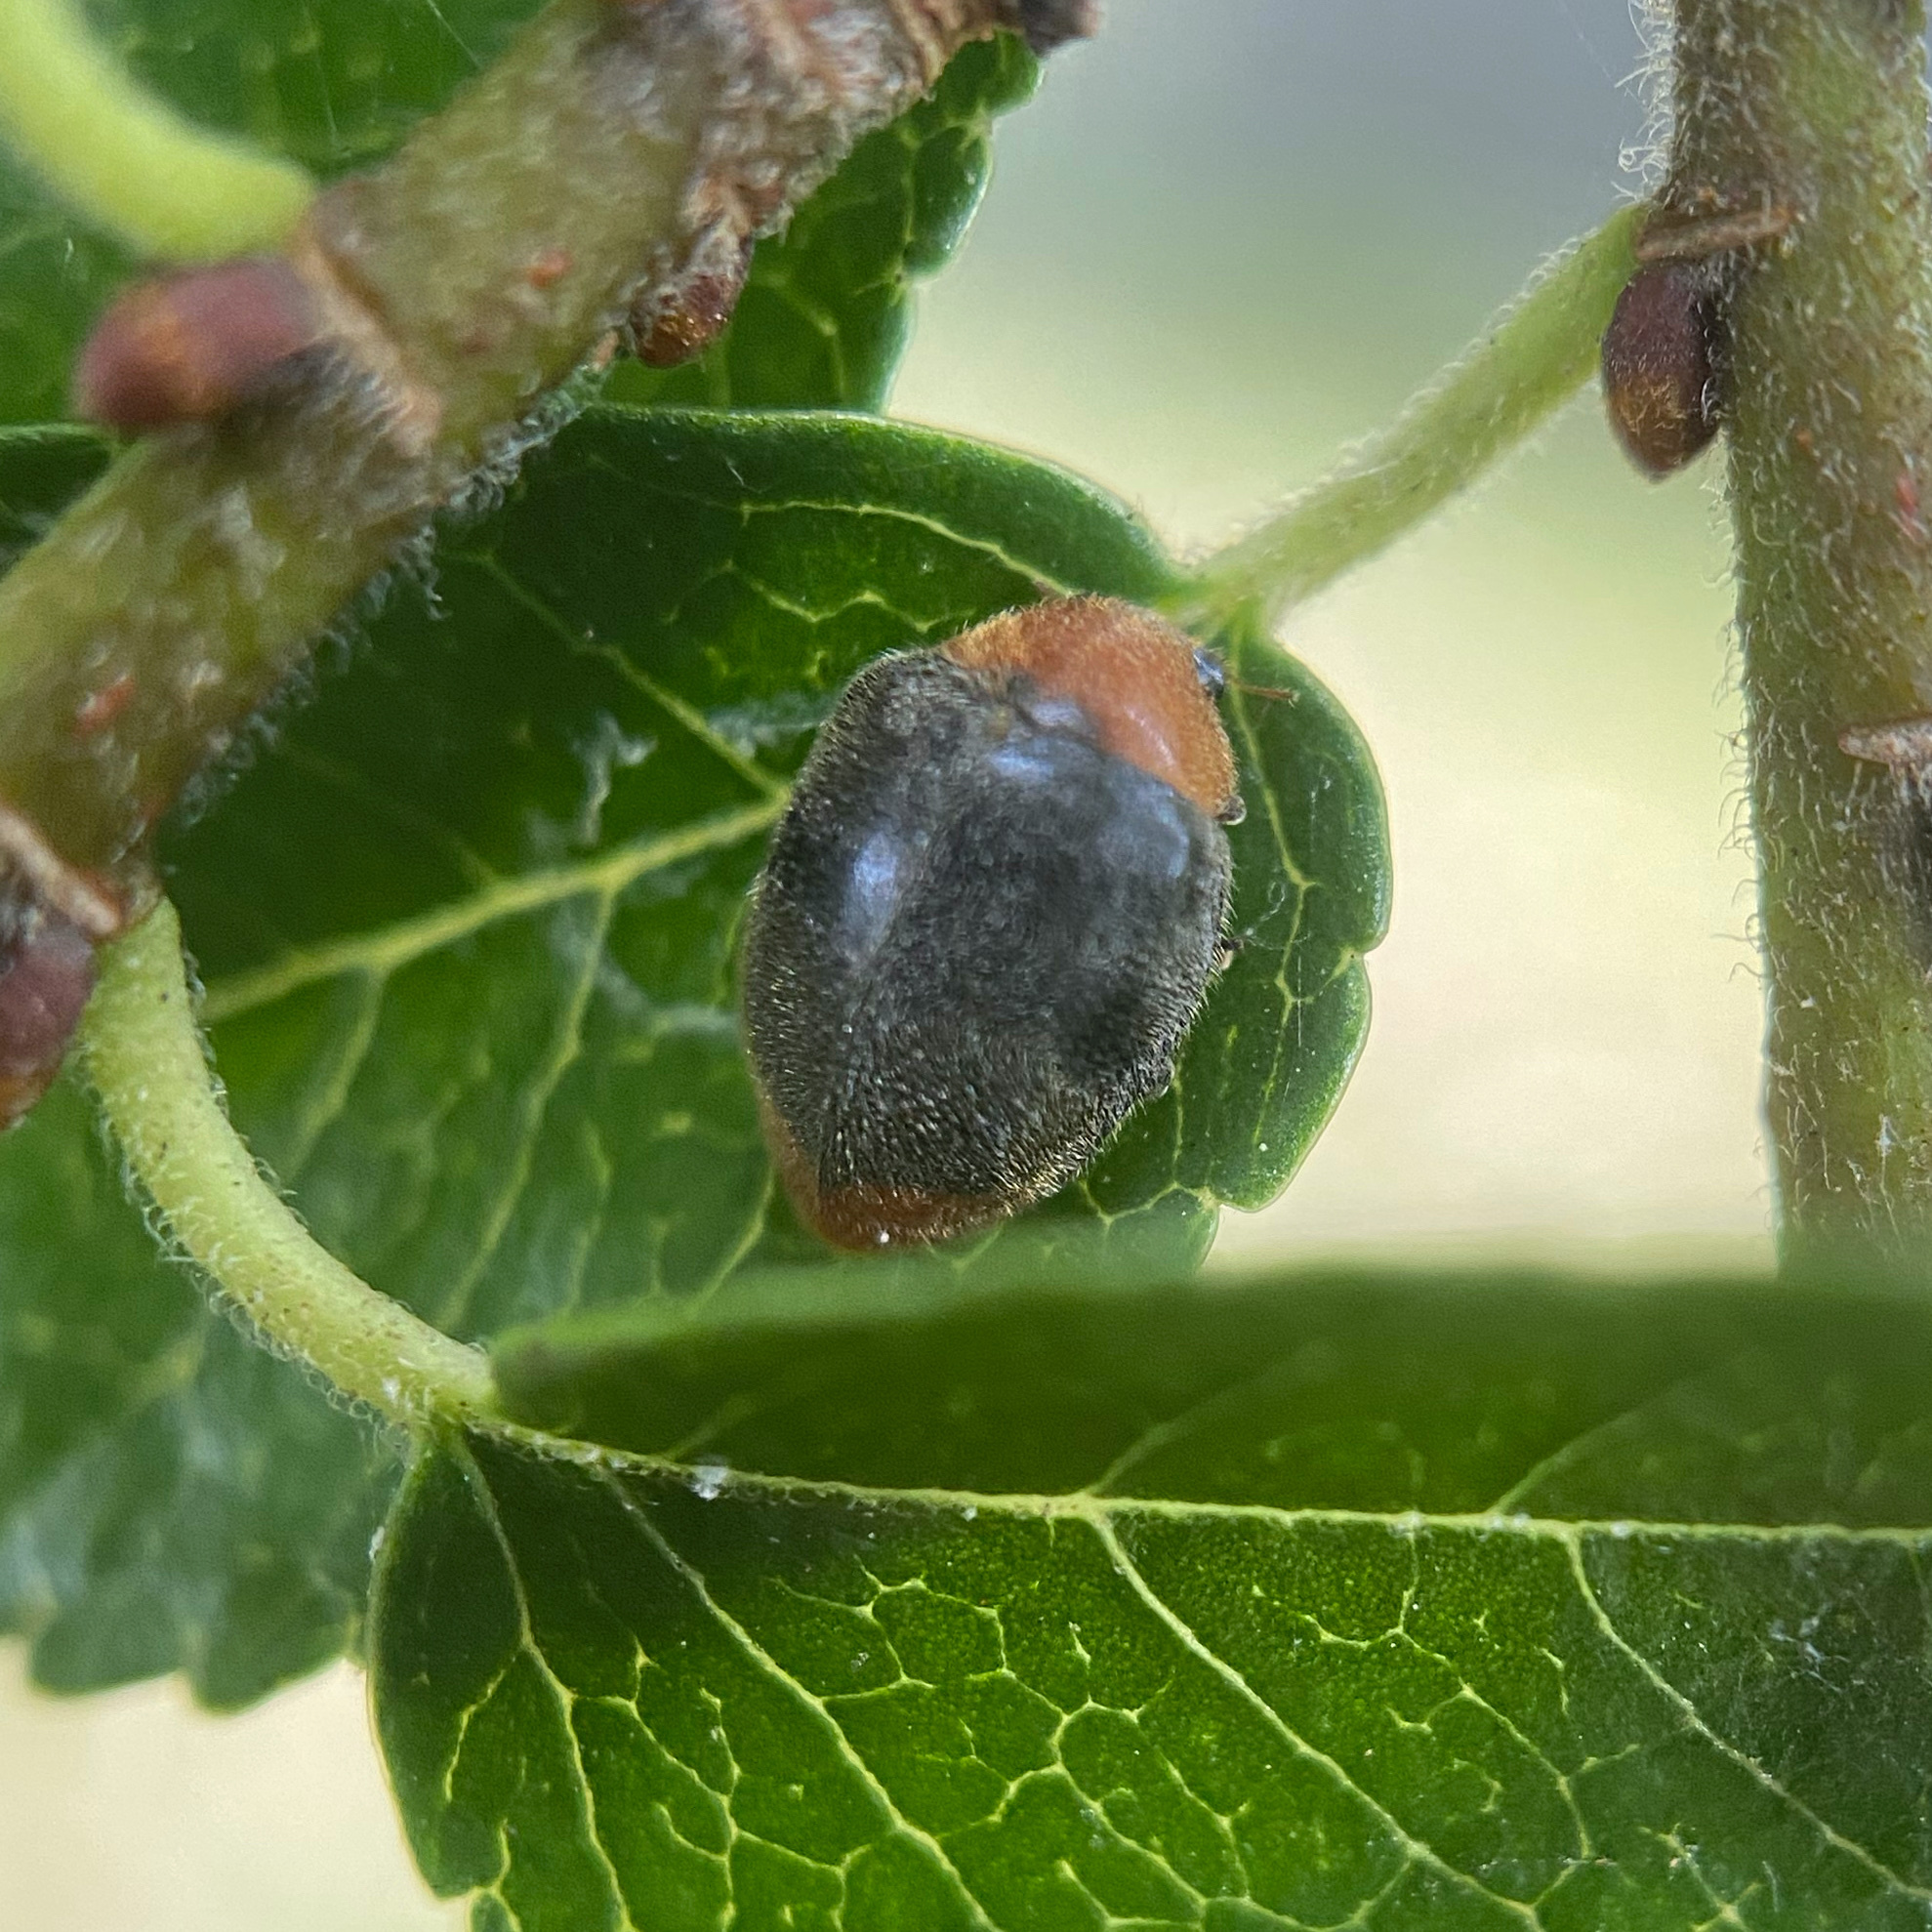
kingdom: Animalia
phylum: Arthropoda
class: Insecta
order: Coleoptera
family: Coccinellidae
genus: Cryptolaemus
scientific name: Cryptolaemus montrouzieri
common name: Mealybug destroyer
